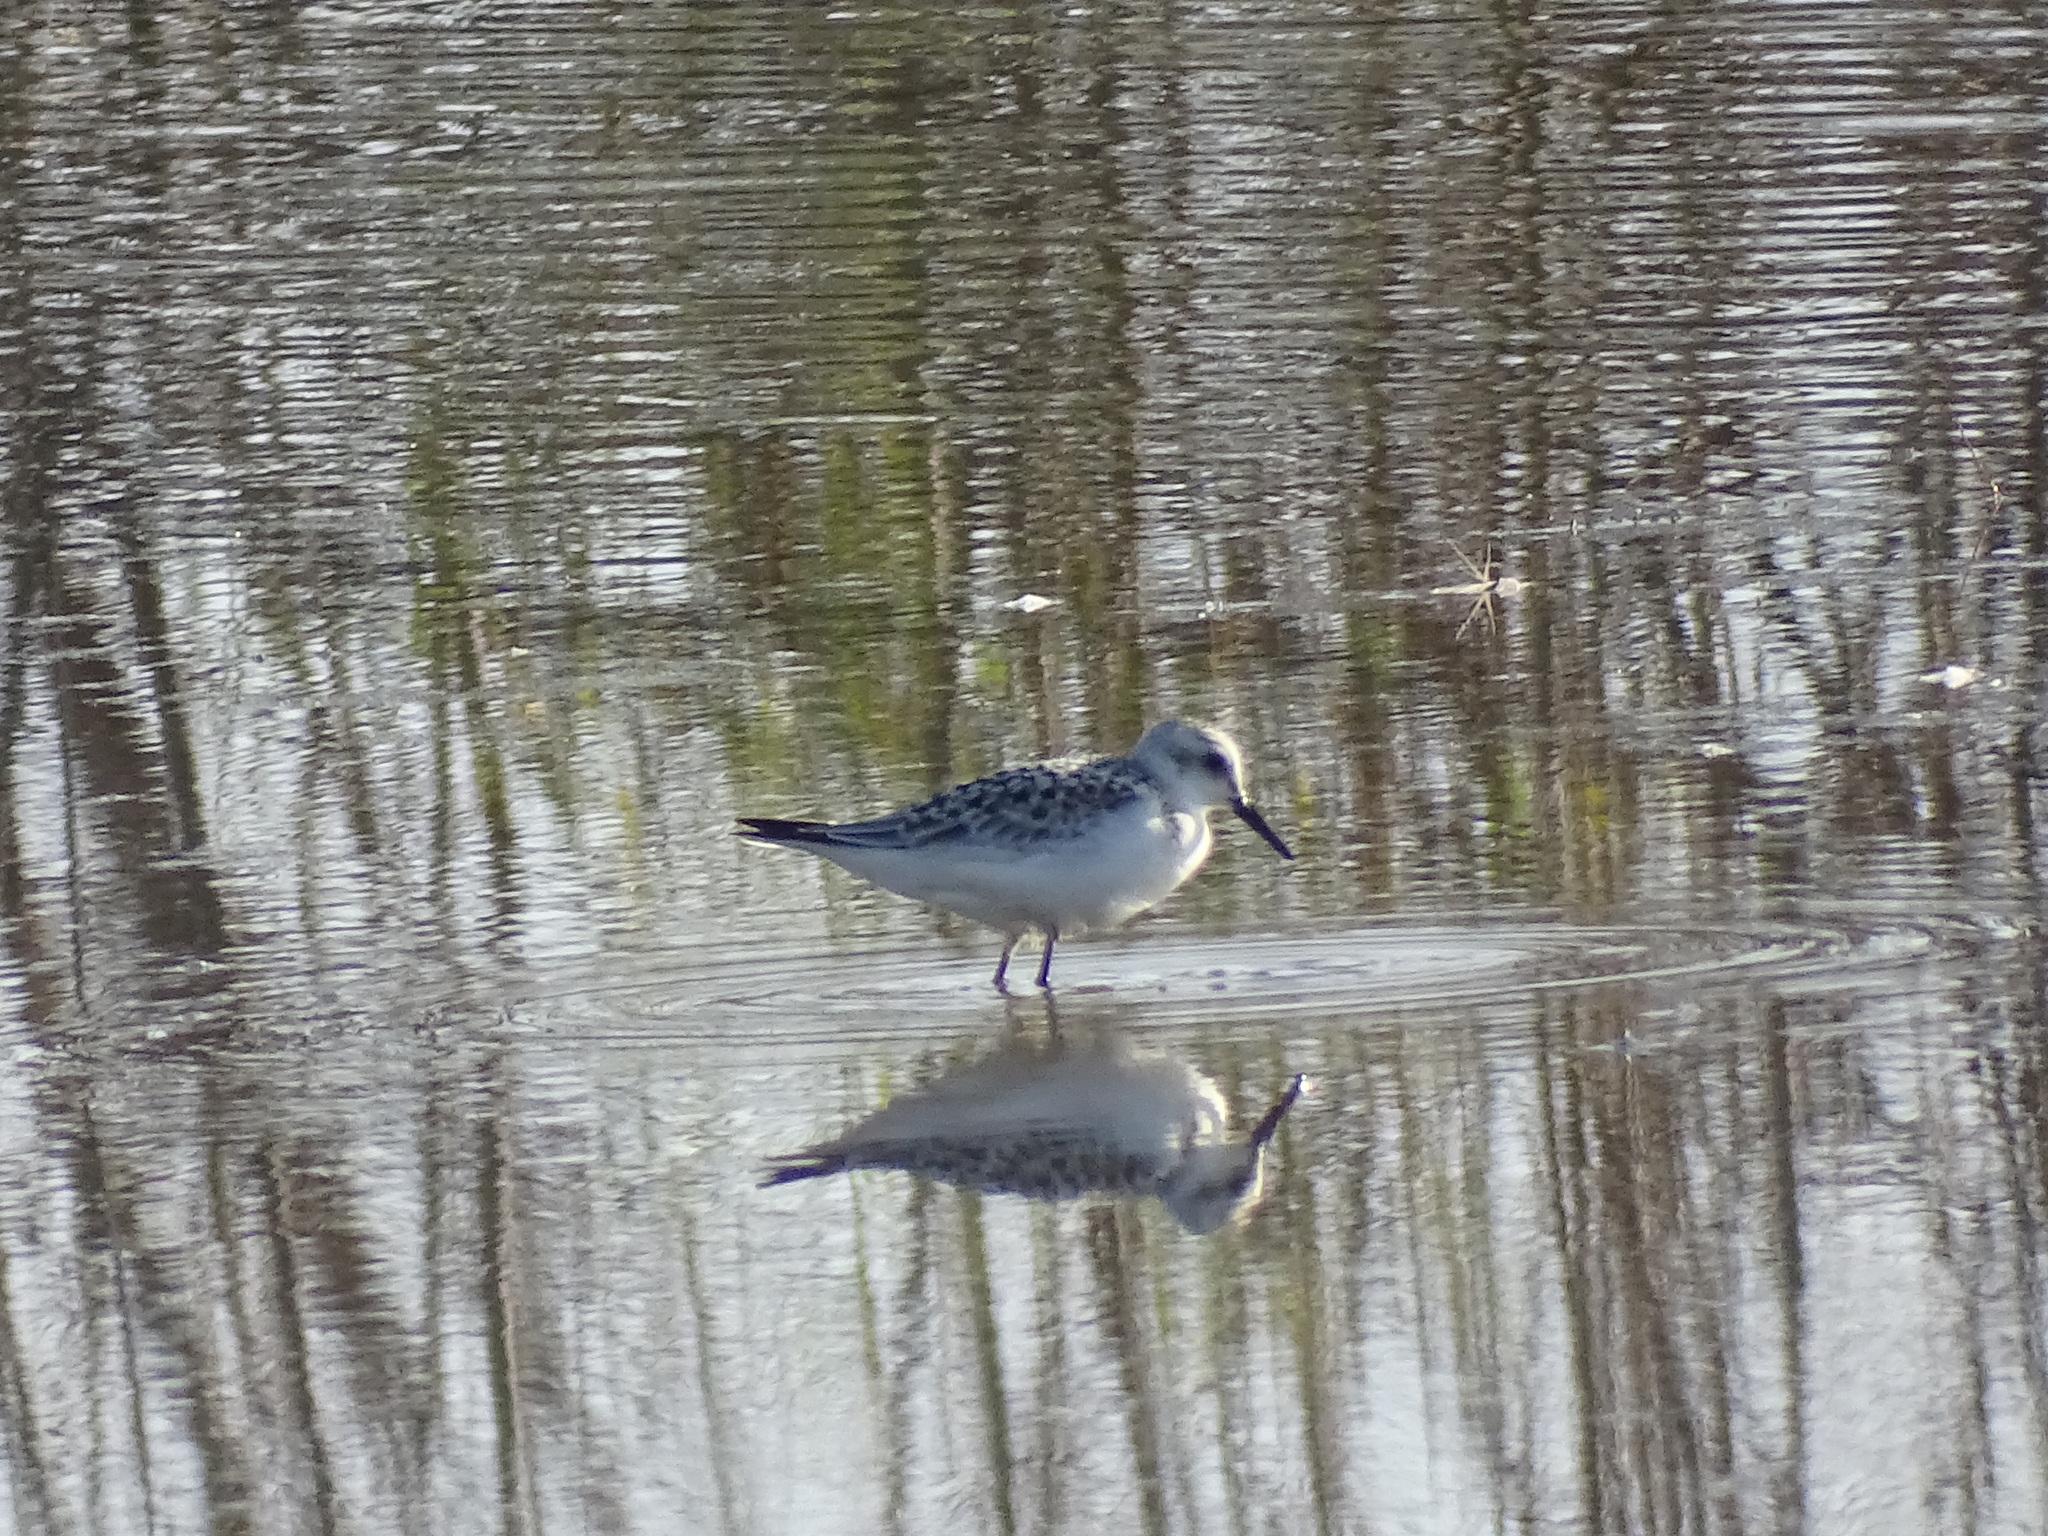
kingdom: Animalia
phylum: Chordata
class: Aves
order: Charadriiformes
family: Scolopacidae
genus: Calidris
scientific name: Calidris alba
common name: Sanderling
